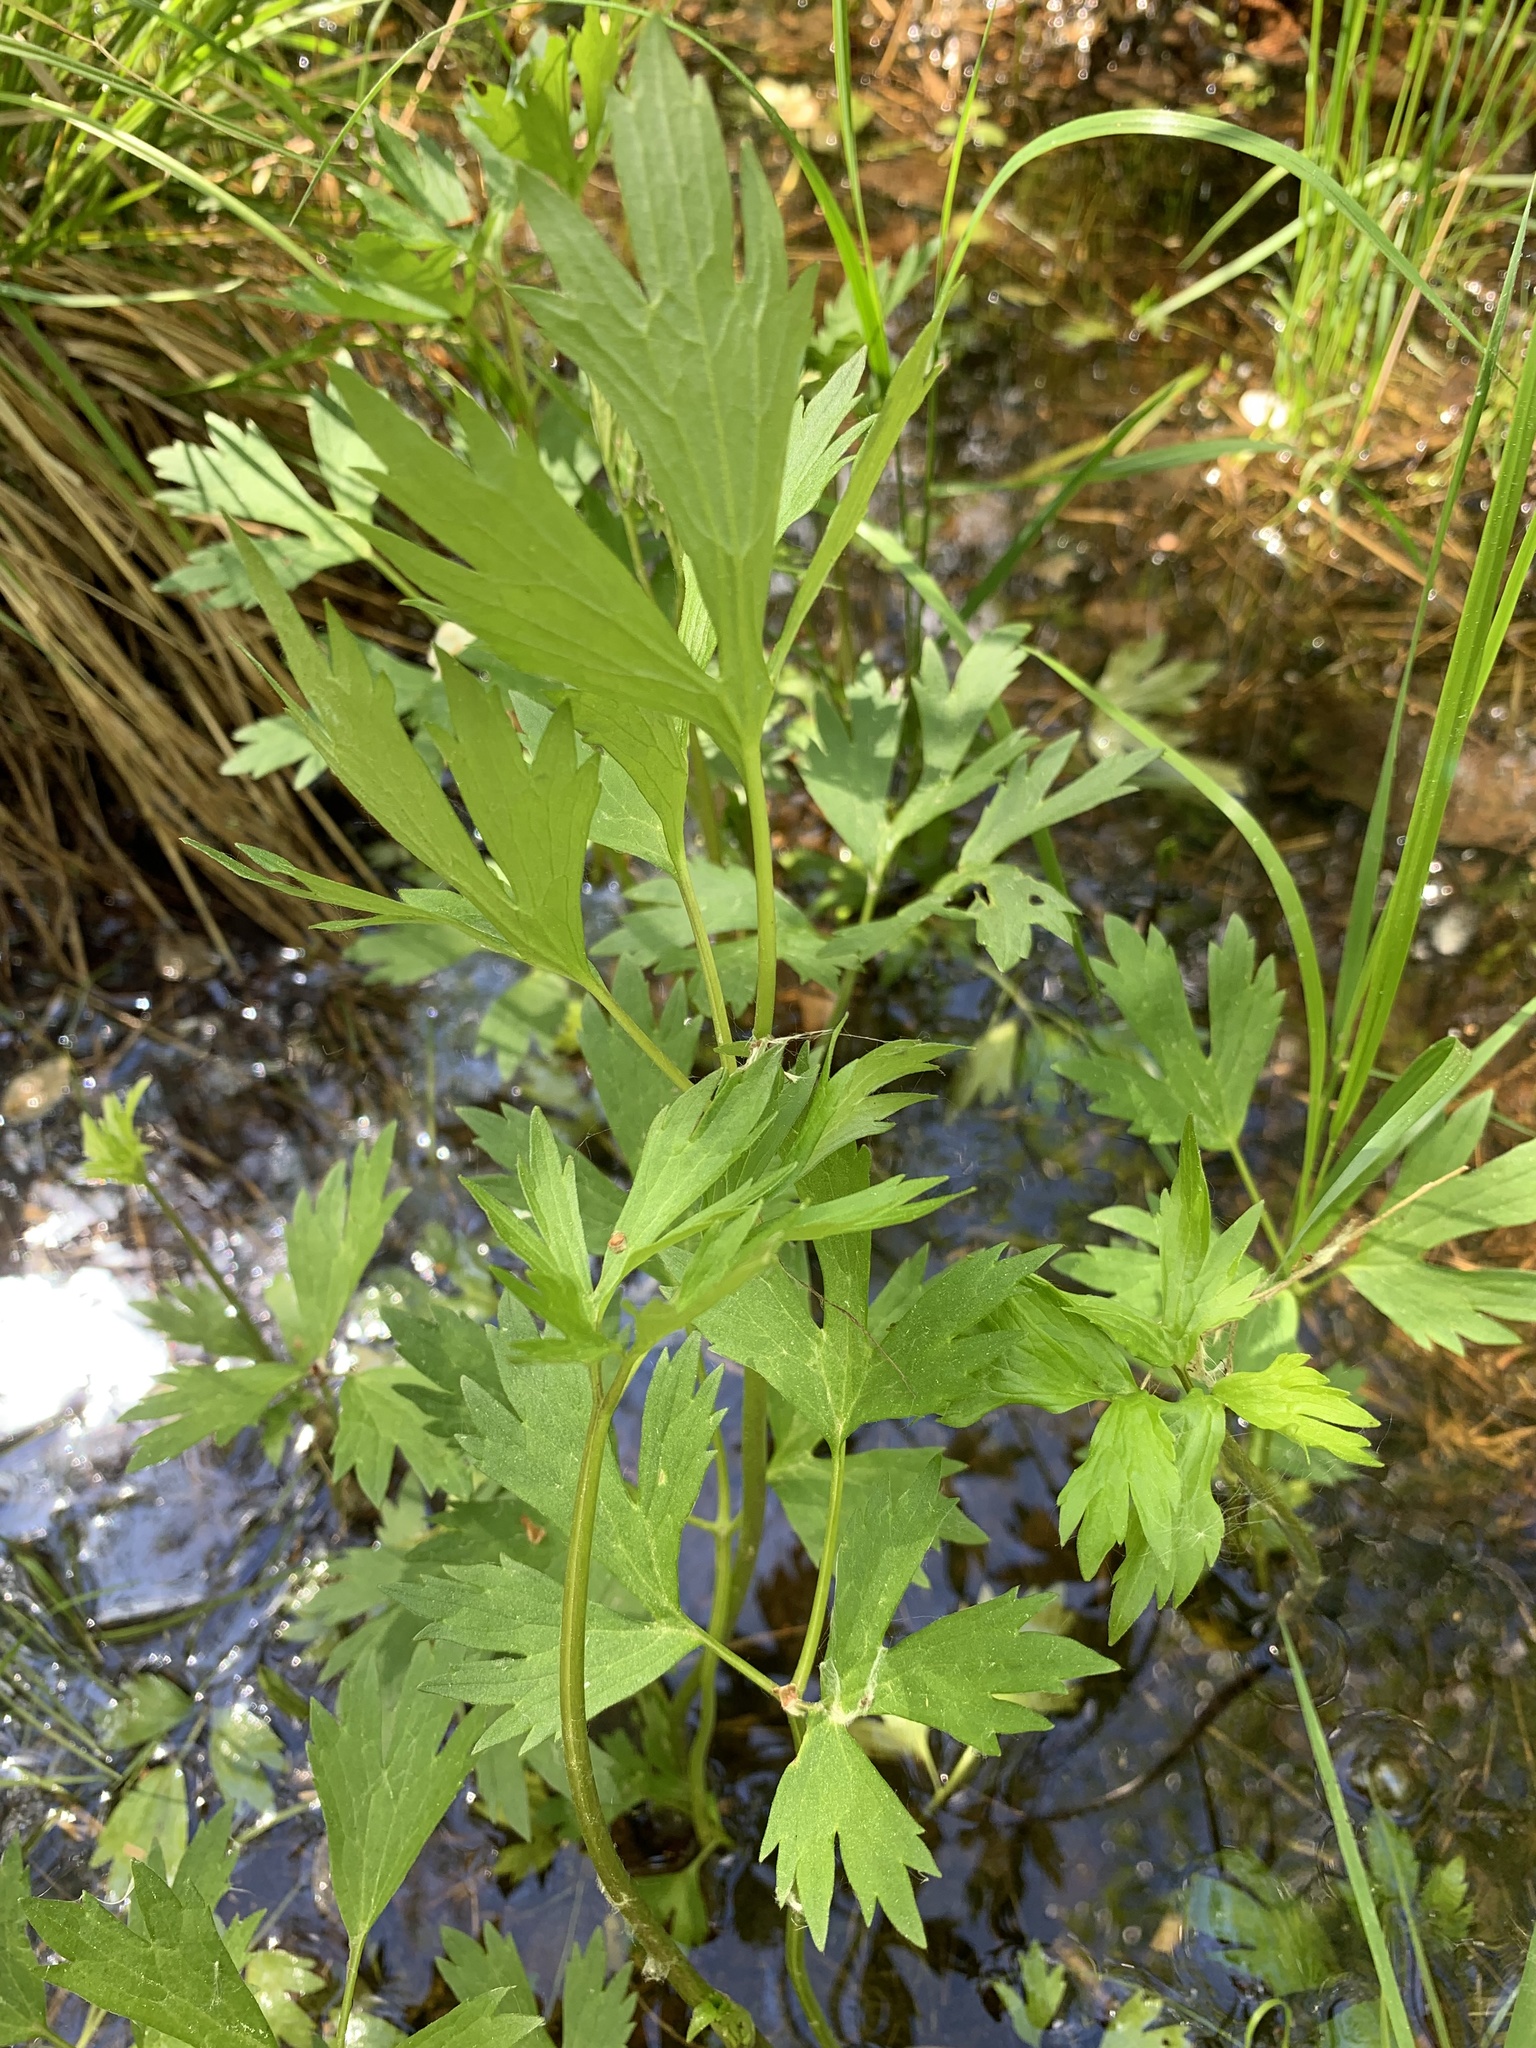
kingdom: Plantae
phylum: Tracheophyta
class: Magnoliopsida
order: Ranunculales
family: Ranunculaceae
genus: Ranunculus
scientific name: Ranunculus repens
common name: Creeping buttercup
